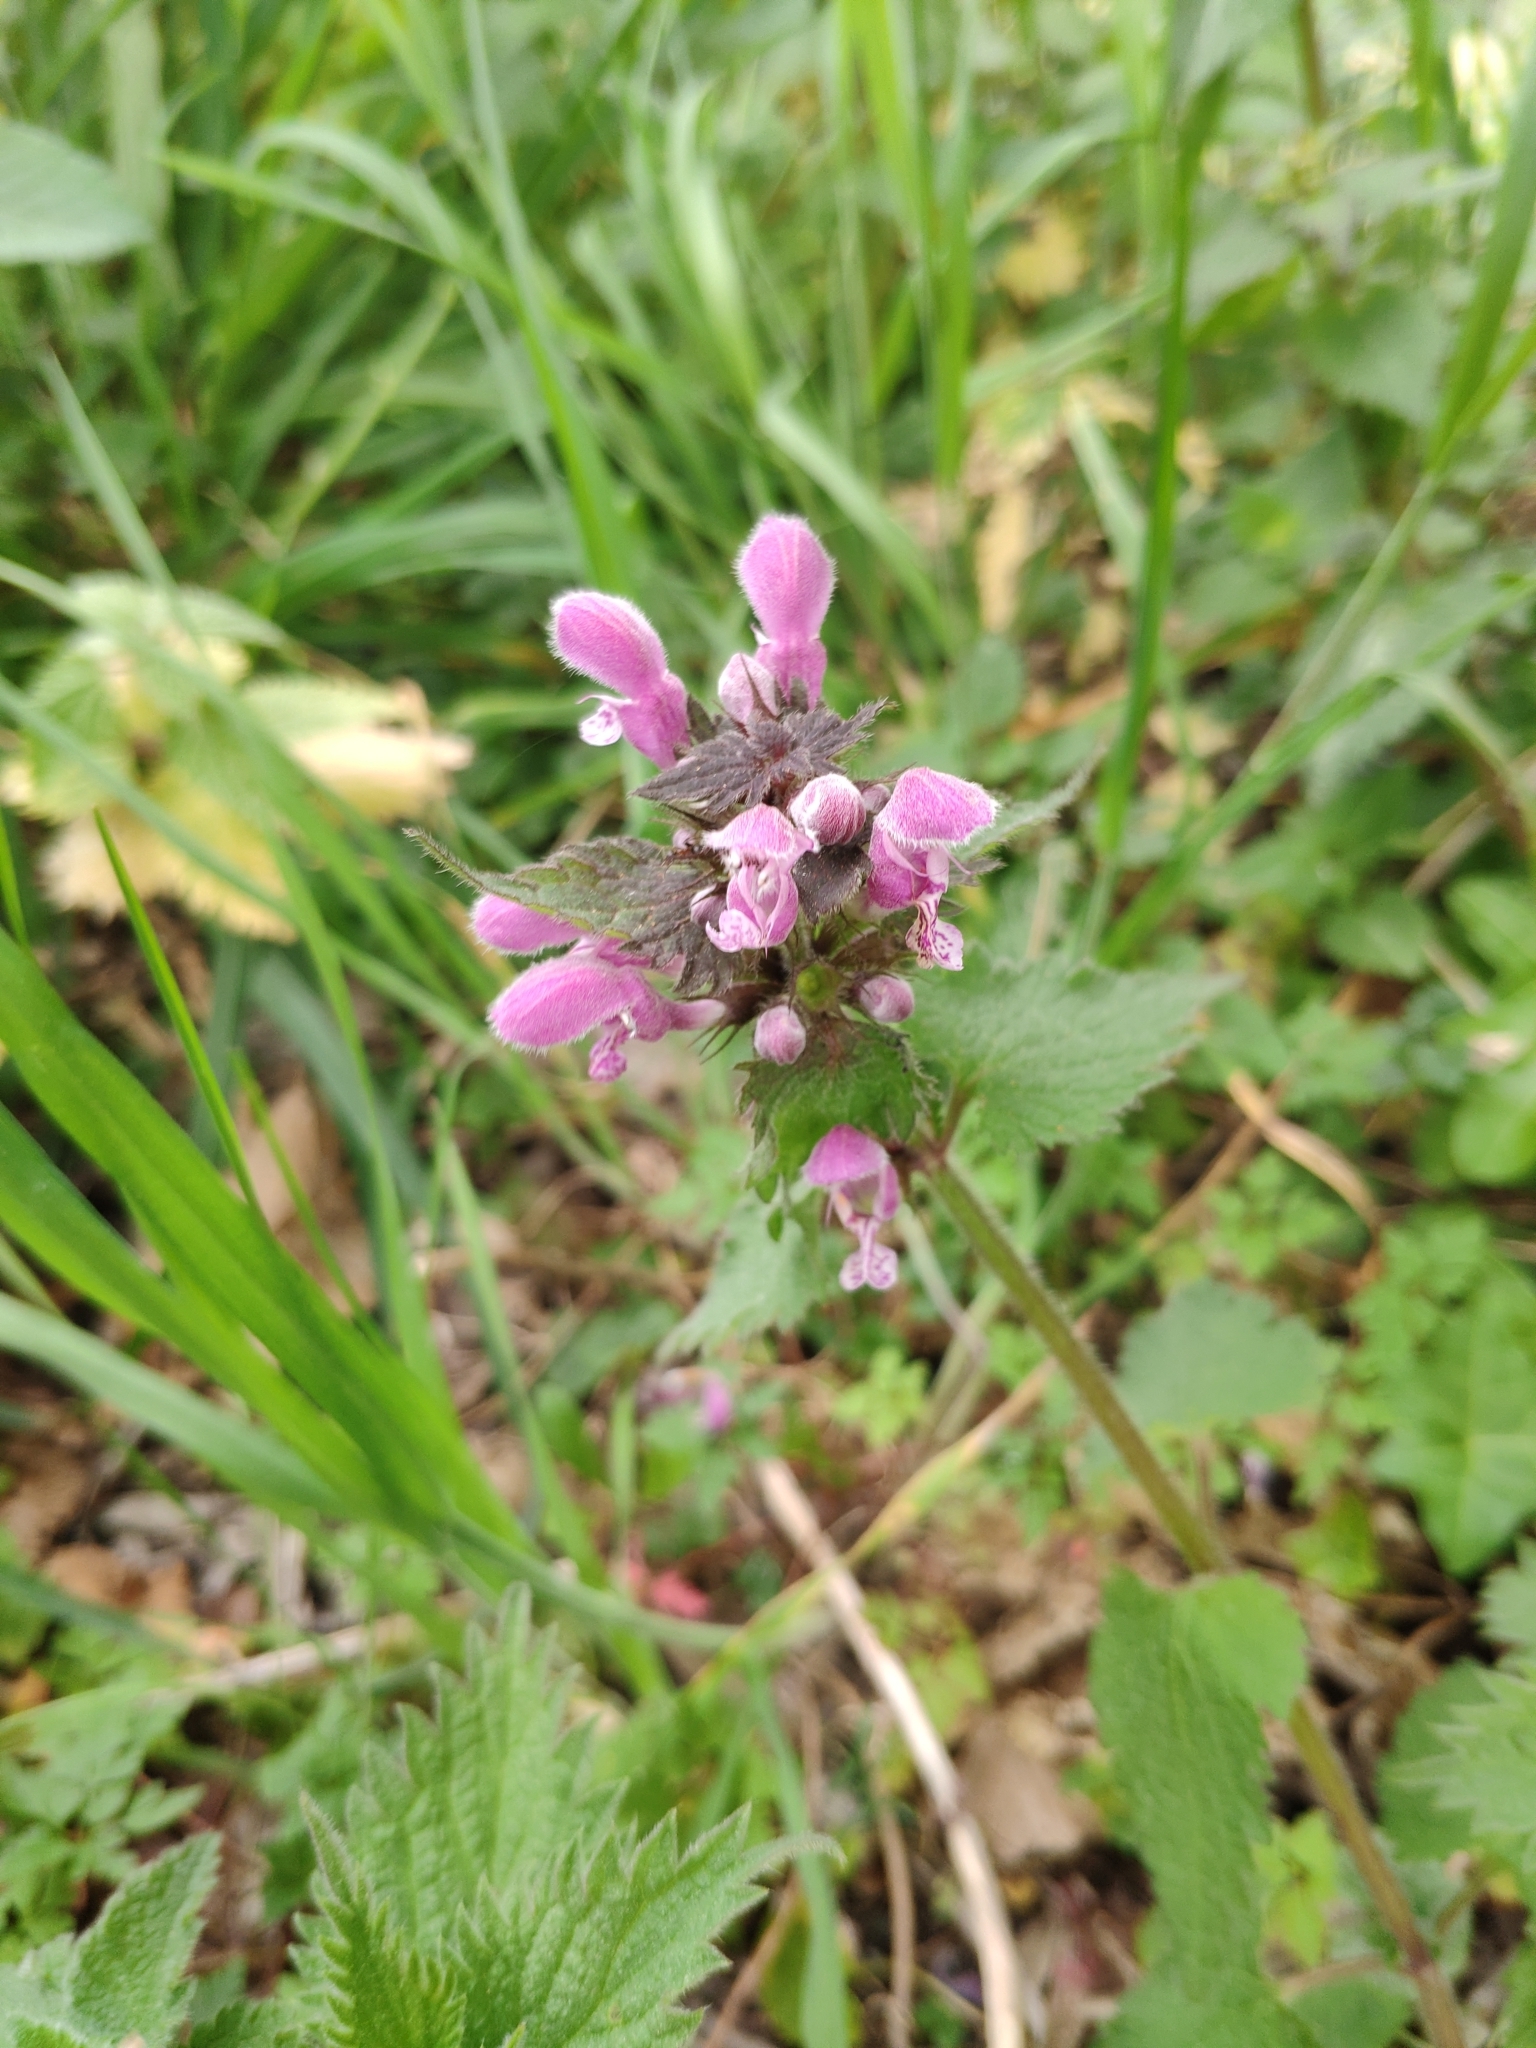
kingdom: Plantae
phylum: Tracheophyta
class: Magnoliopsida
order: Lamiales
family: Lamiaceae
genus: Lamium
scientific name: Lamium maculatum
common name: Spotted dead-nettle
